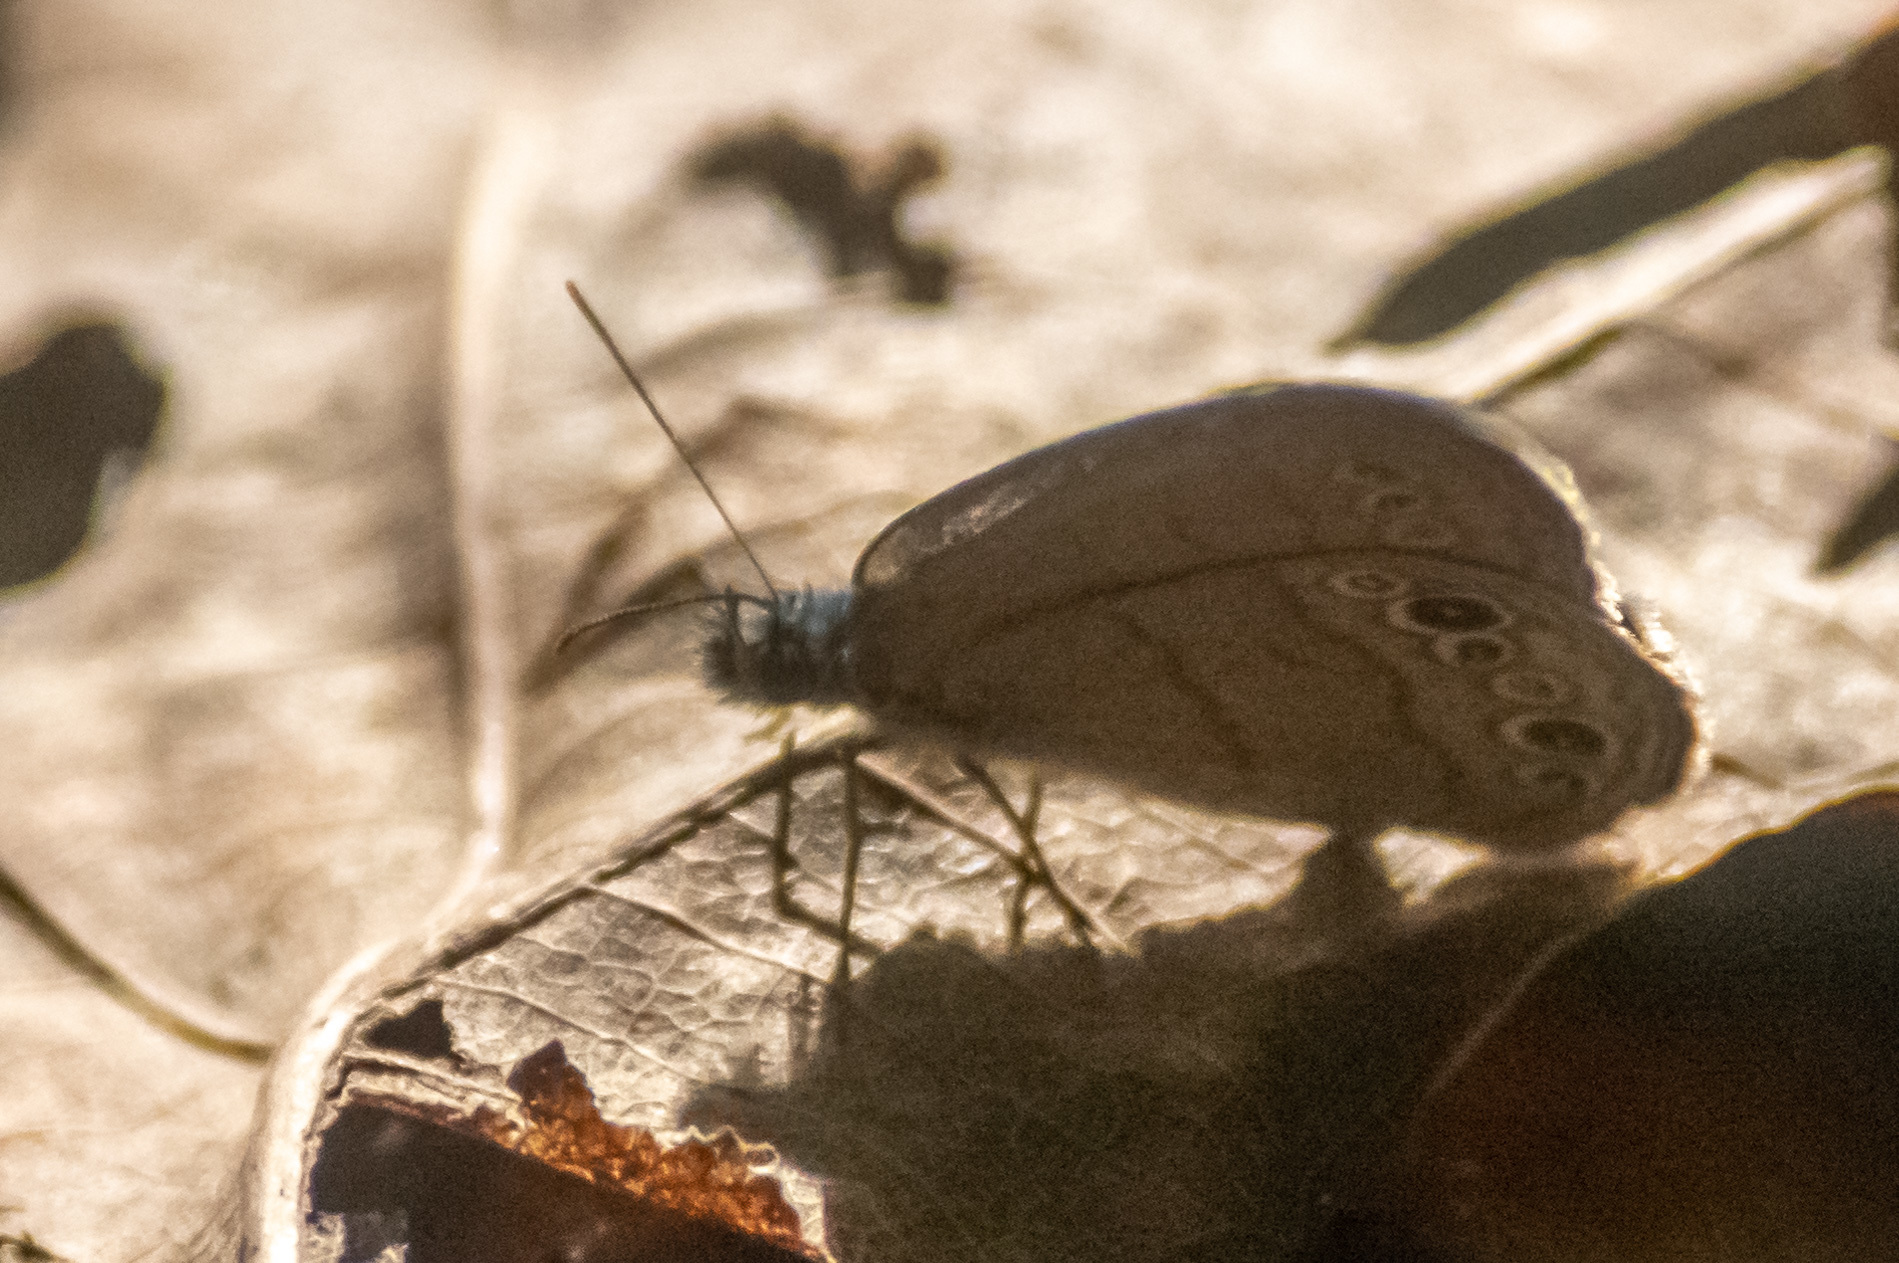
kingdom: Animalia
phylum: Arthropoda
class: Insecta
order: Lepidoptera
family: Nymphalidae
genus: Hermeuptychia
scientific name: Hermeuptychia hermes
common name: Hermes satyr
